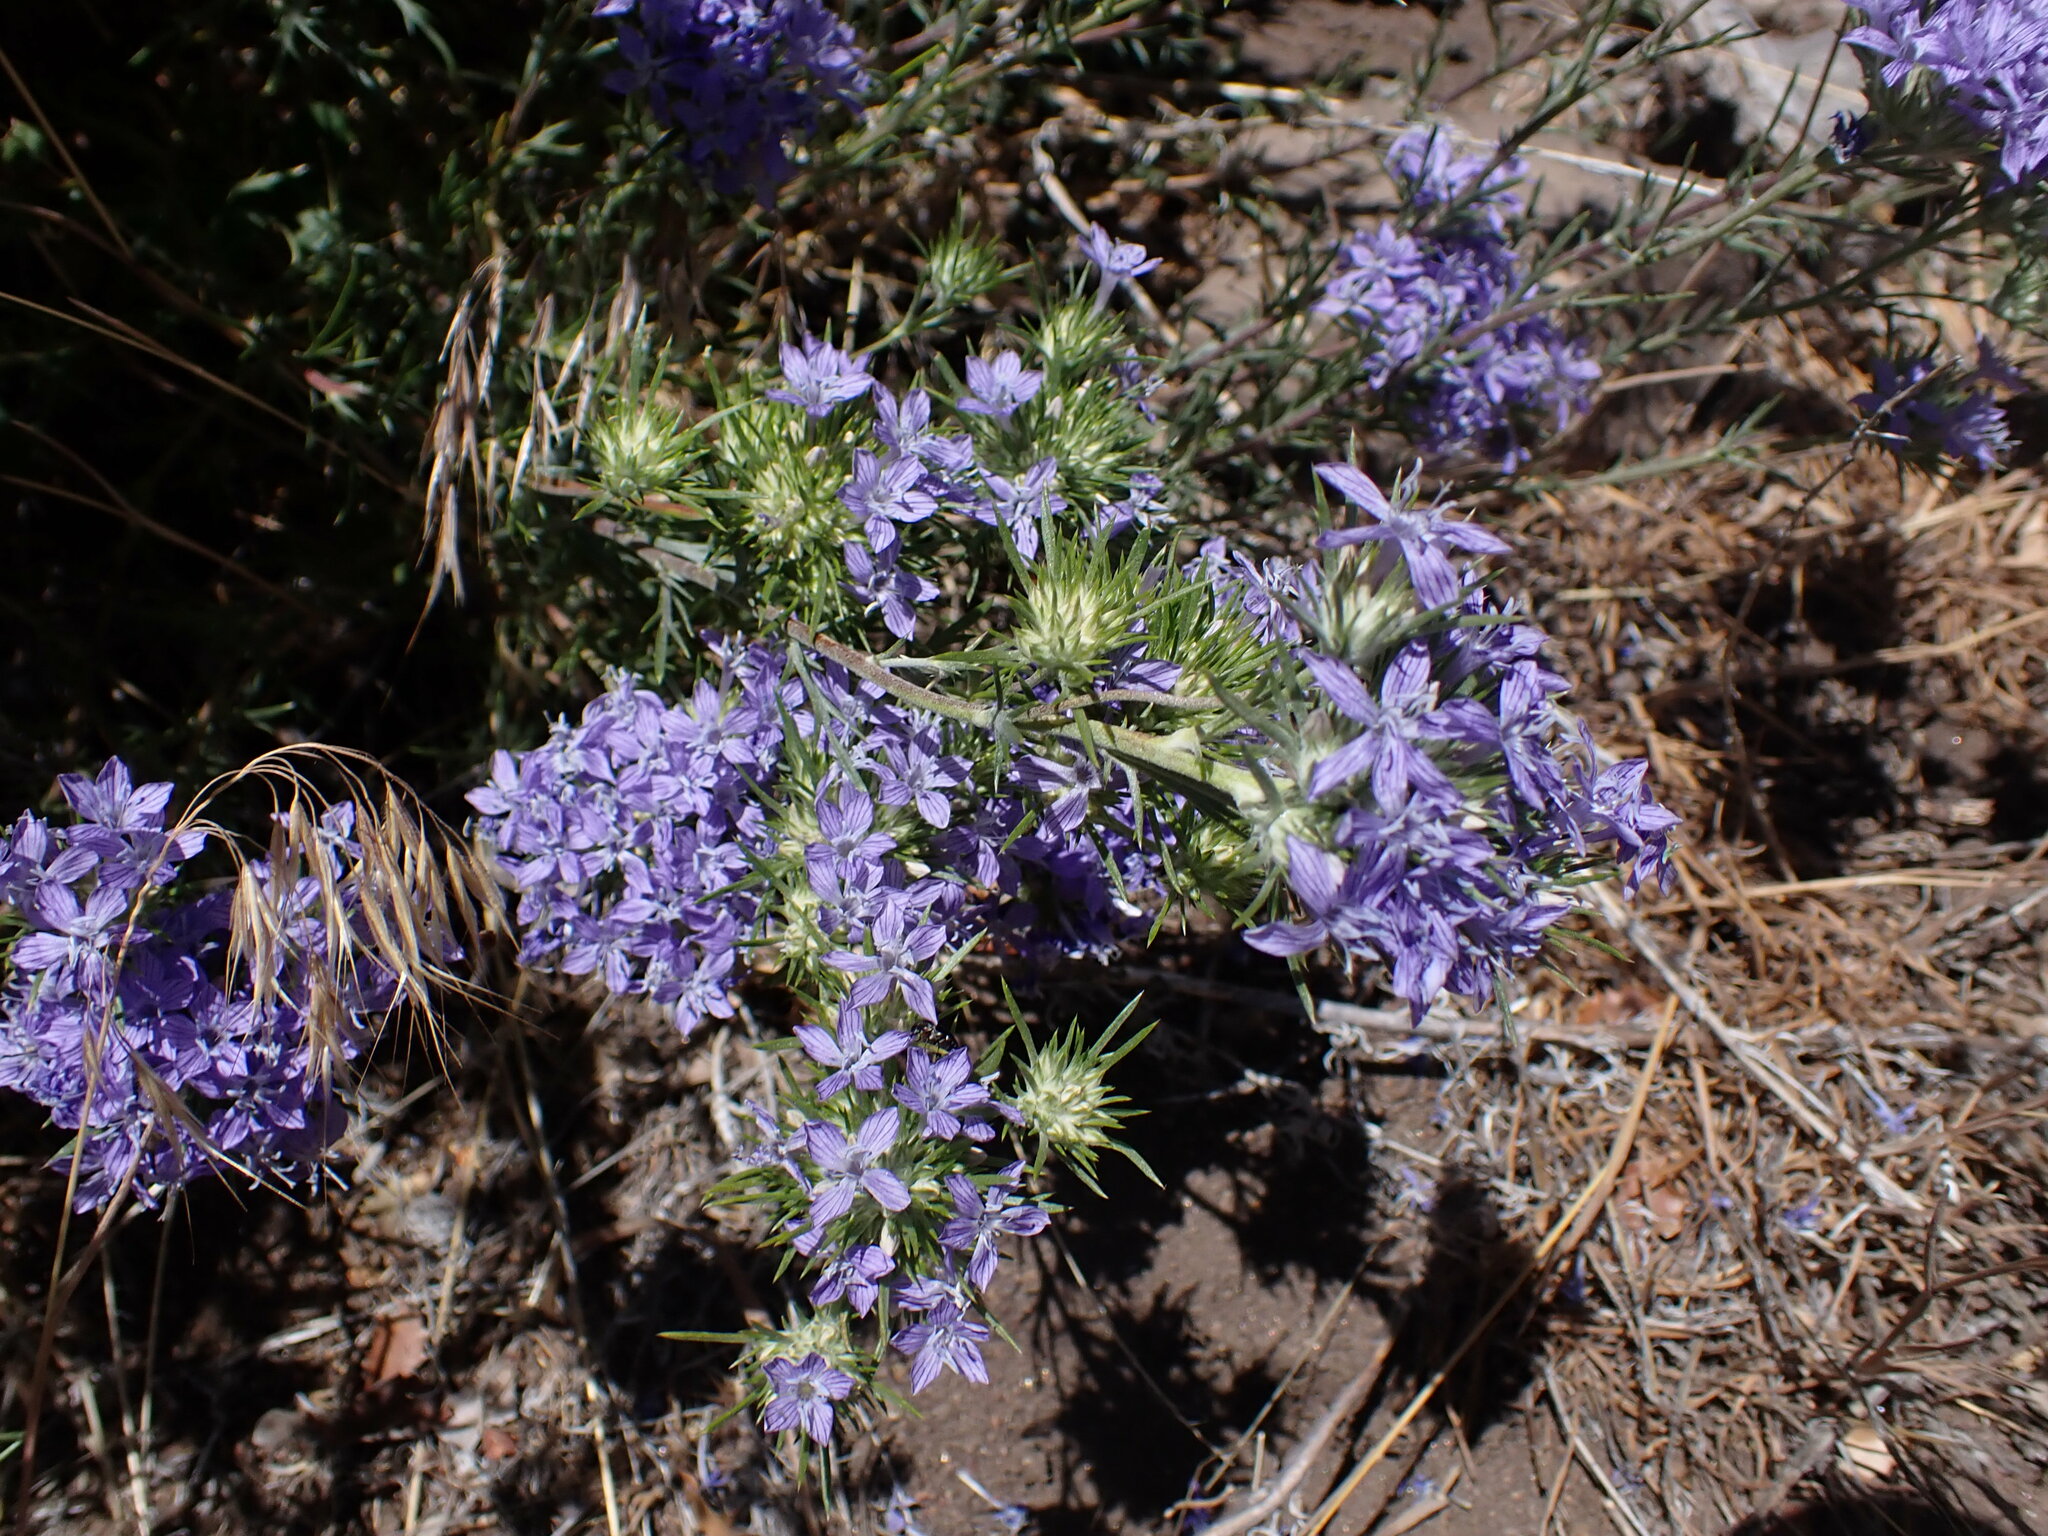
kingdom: Plantae
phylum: Tracheophyta
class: Magnoliopsida
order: Ericales
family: Polemoniaceae
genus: Eriastrum
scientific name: Eriastrum densifolium
